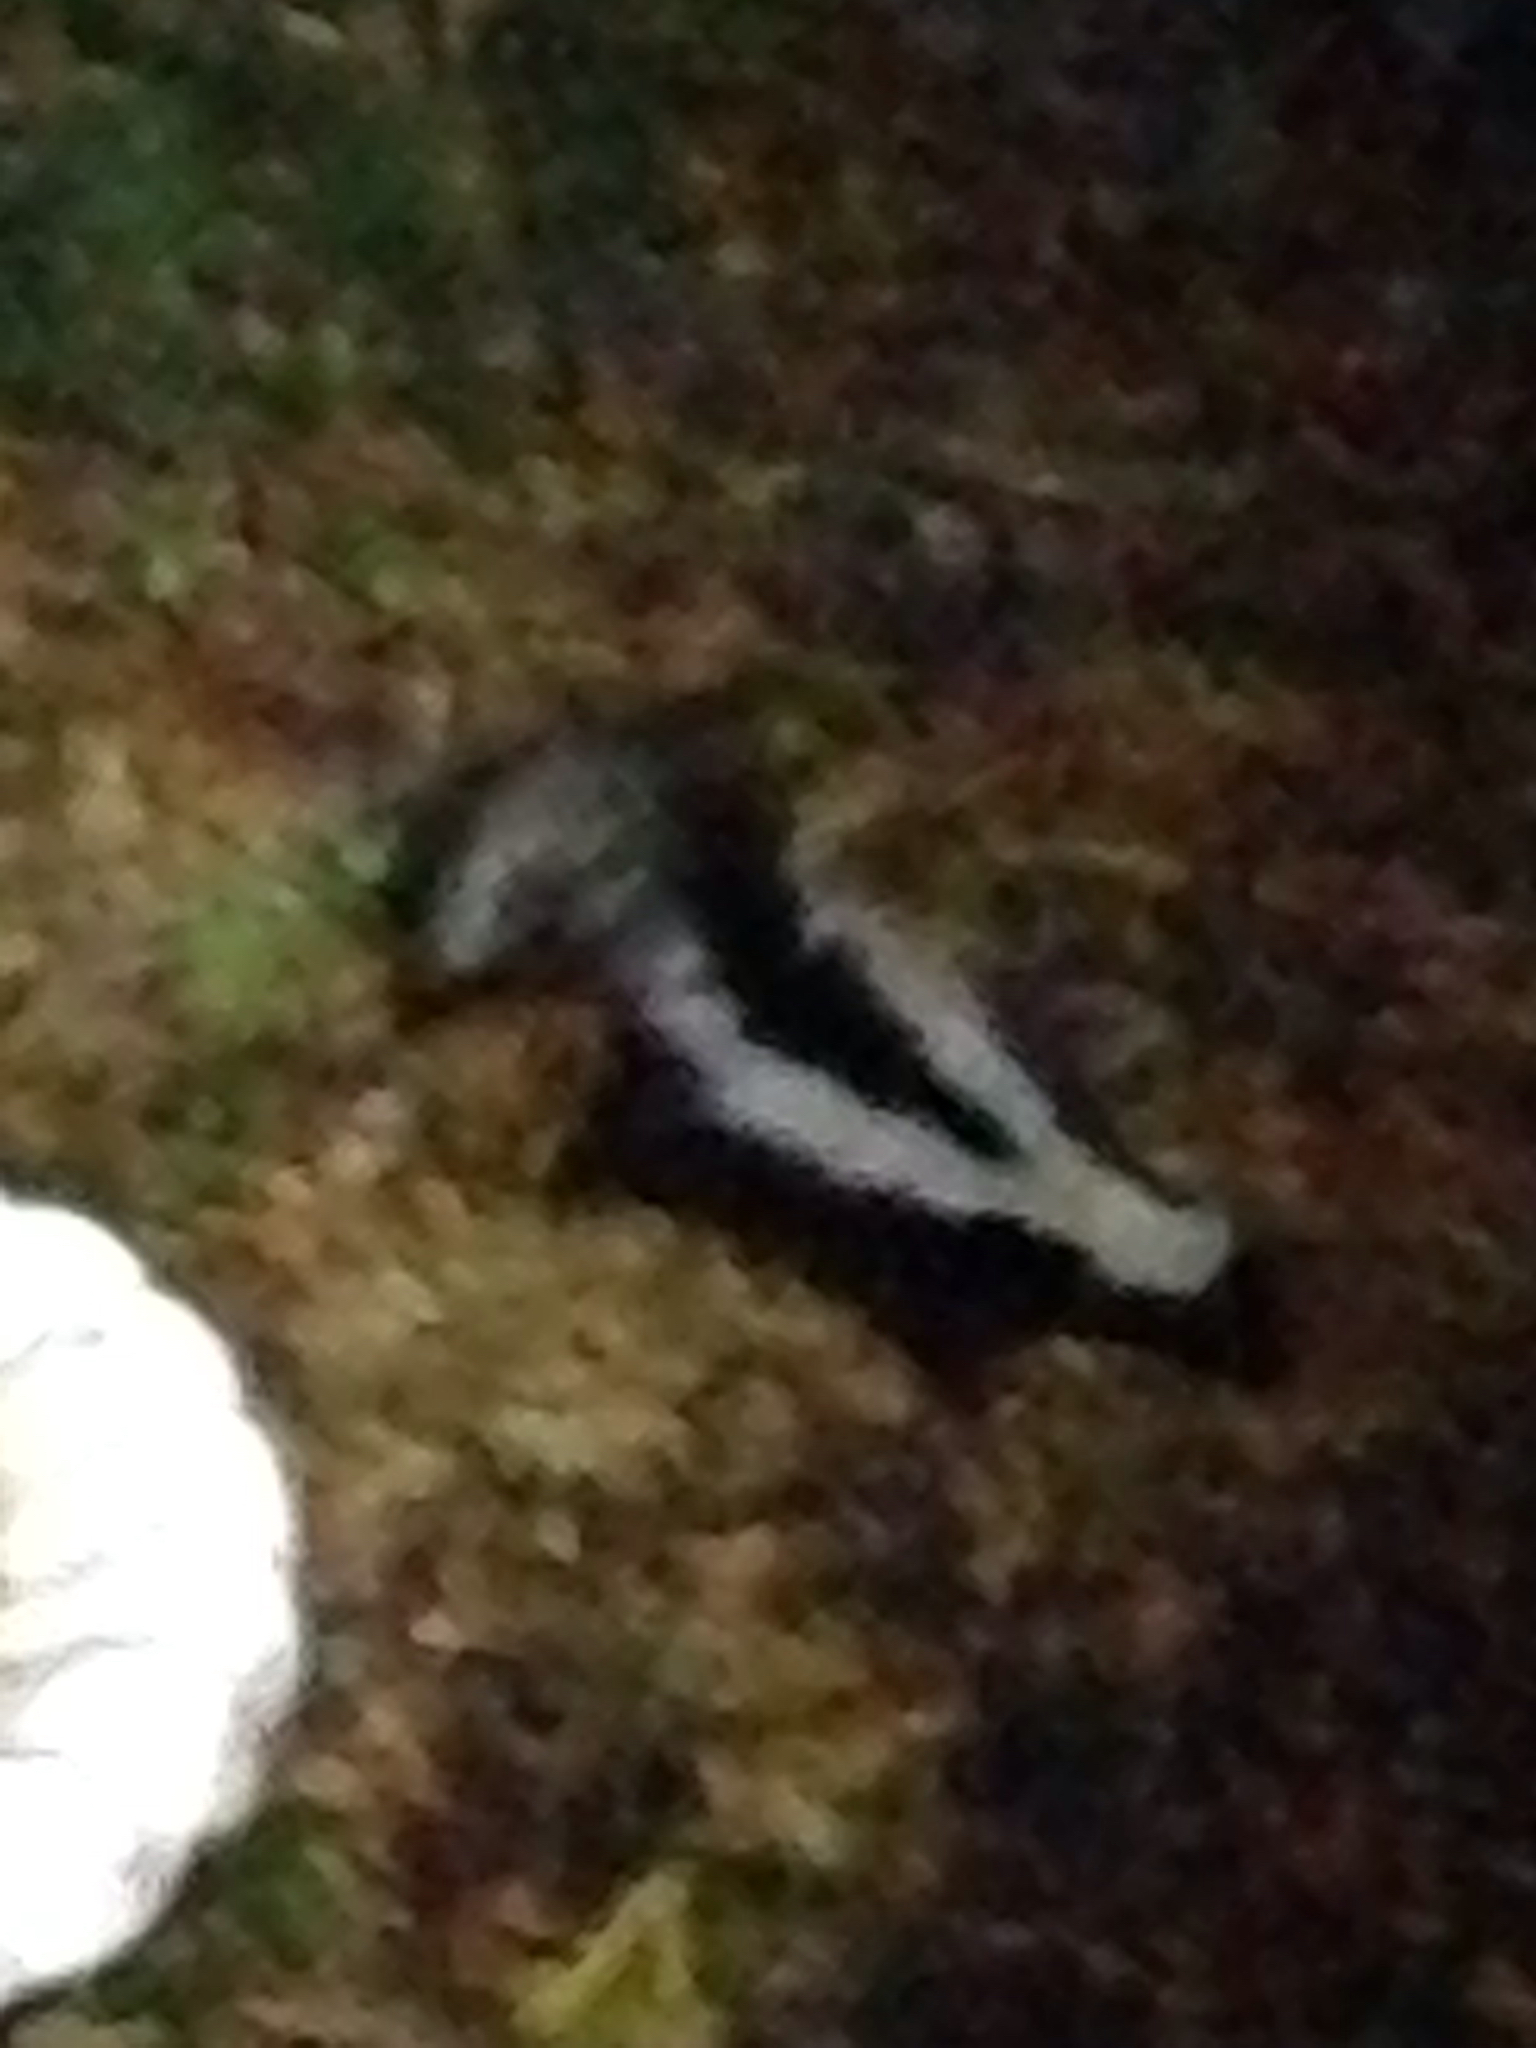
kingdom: Animalia
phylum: Chordata
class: Mammalia
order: Carnivora
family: Mephitidae
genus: Mephitis
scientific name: Mephitis mephitis
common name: Striped skunk
